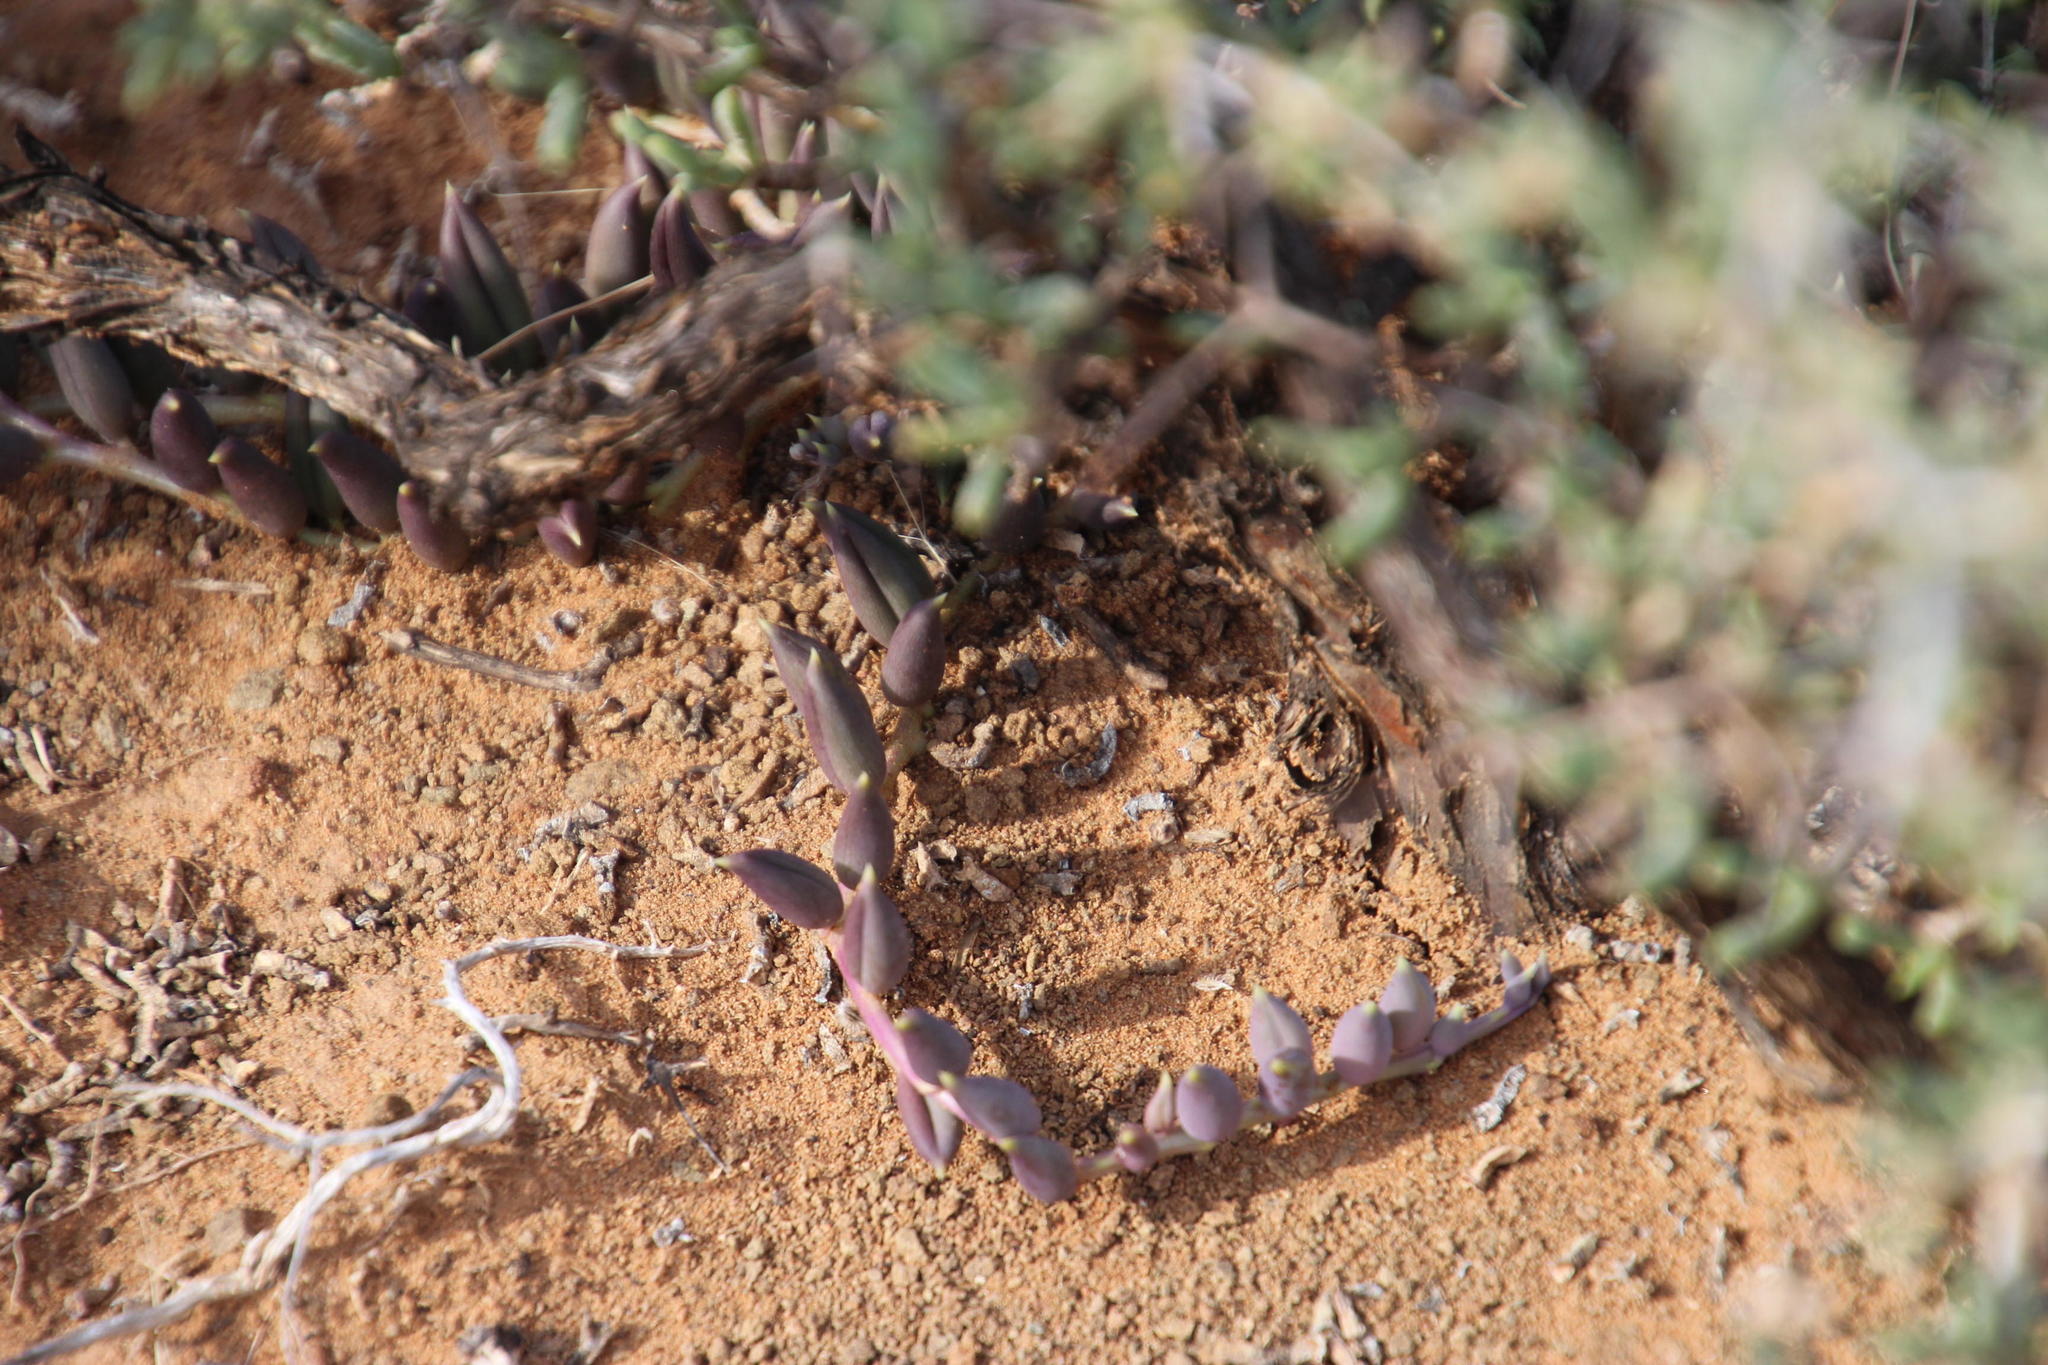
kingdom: Plantae
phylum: Tracheophyta
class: Magnoliopsida
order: Asterales
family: Asteraceae
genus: Curio
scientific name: Curio radicans
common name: Creeping-berry
